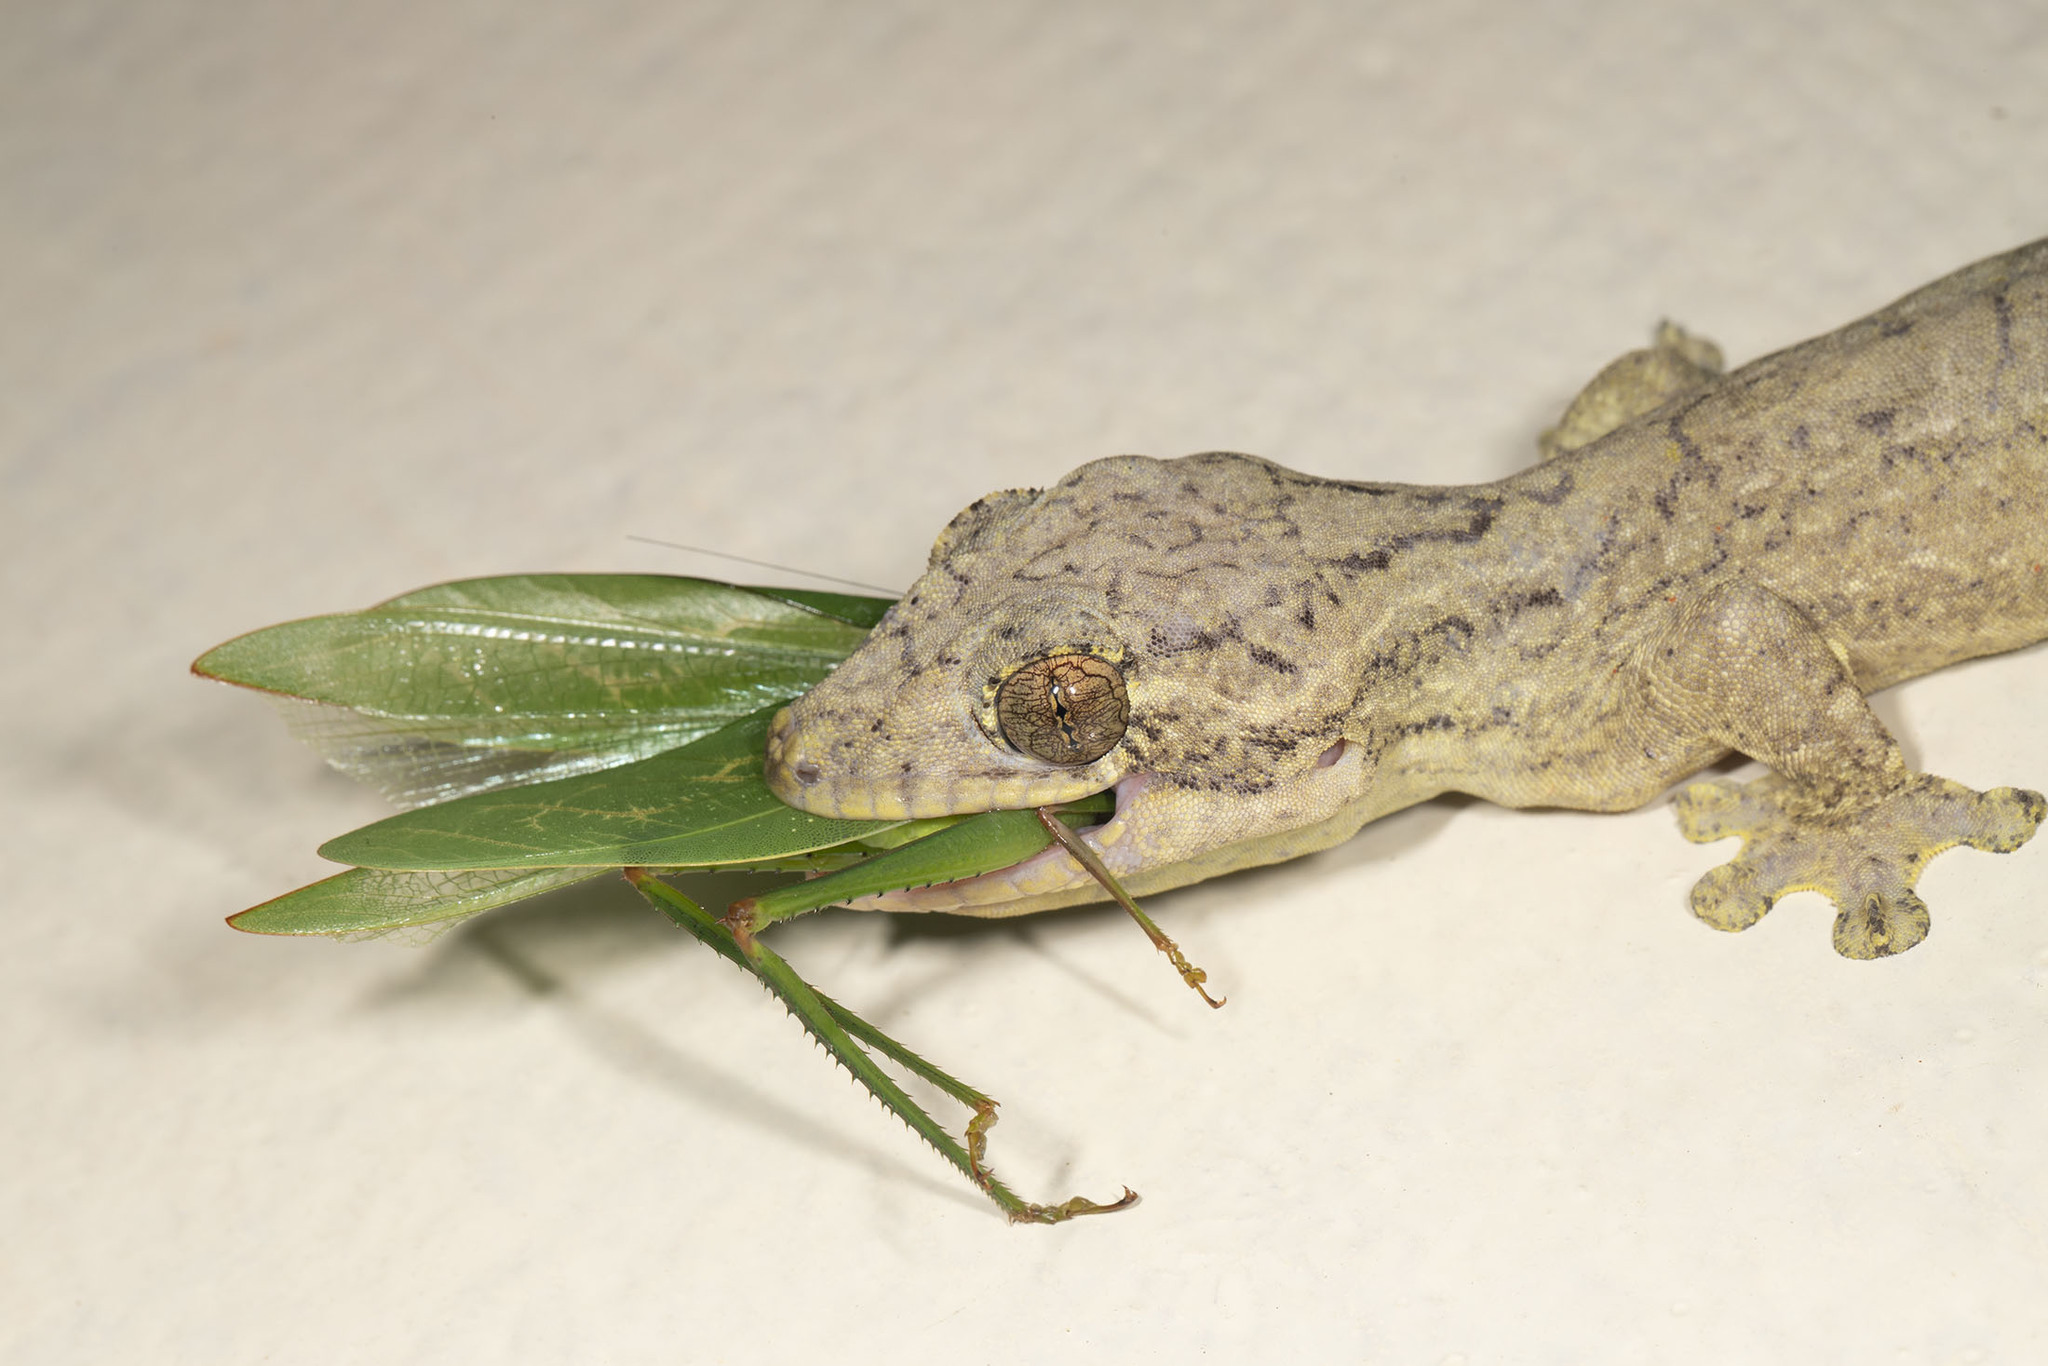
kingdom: Animalia
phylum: Chordata
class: Squamata
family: Phyllodactylidae
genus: Thecadactylus
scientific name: Thecadactylus solimoensis
